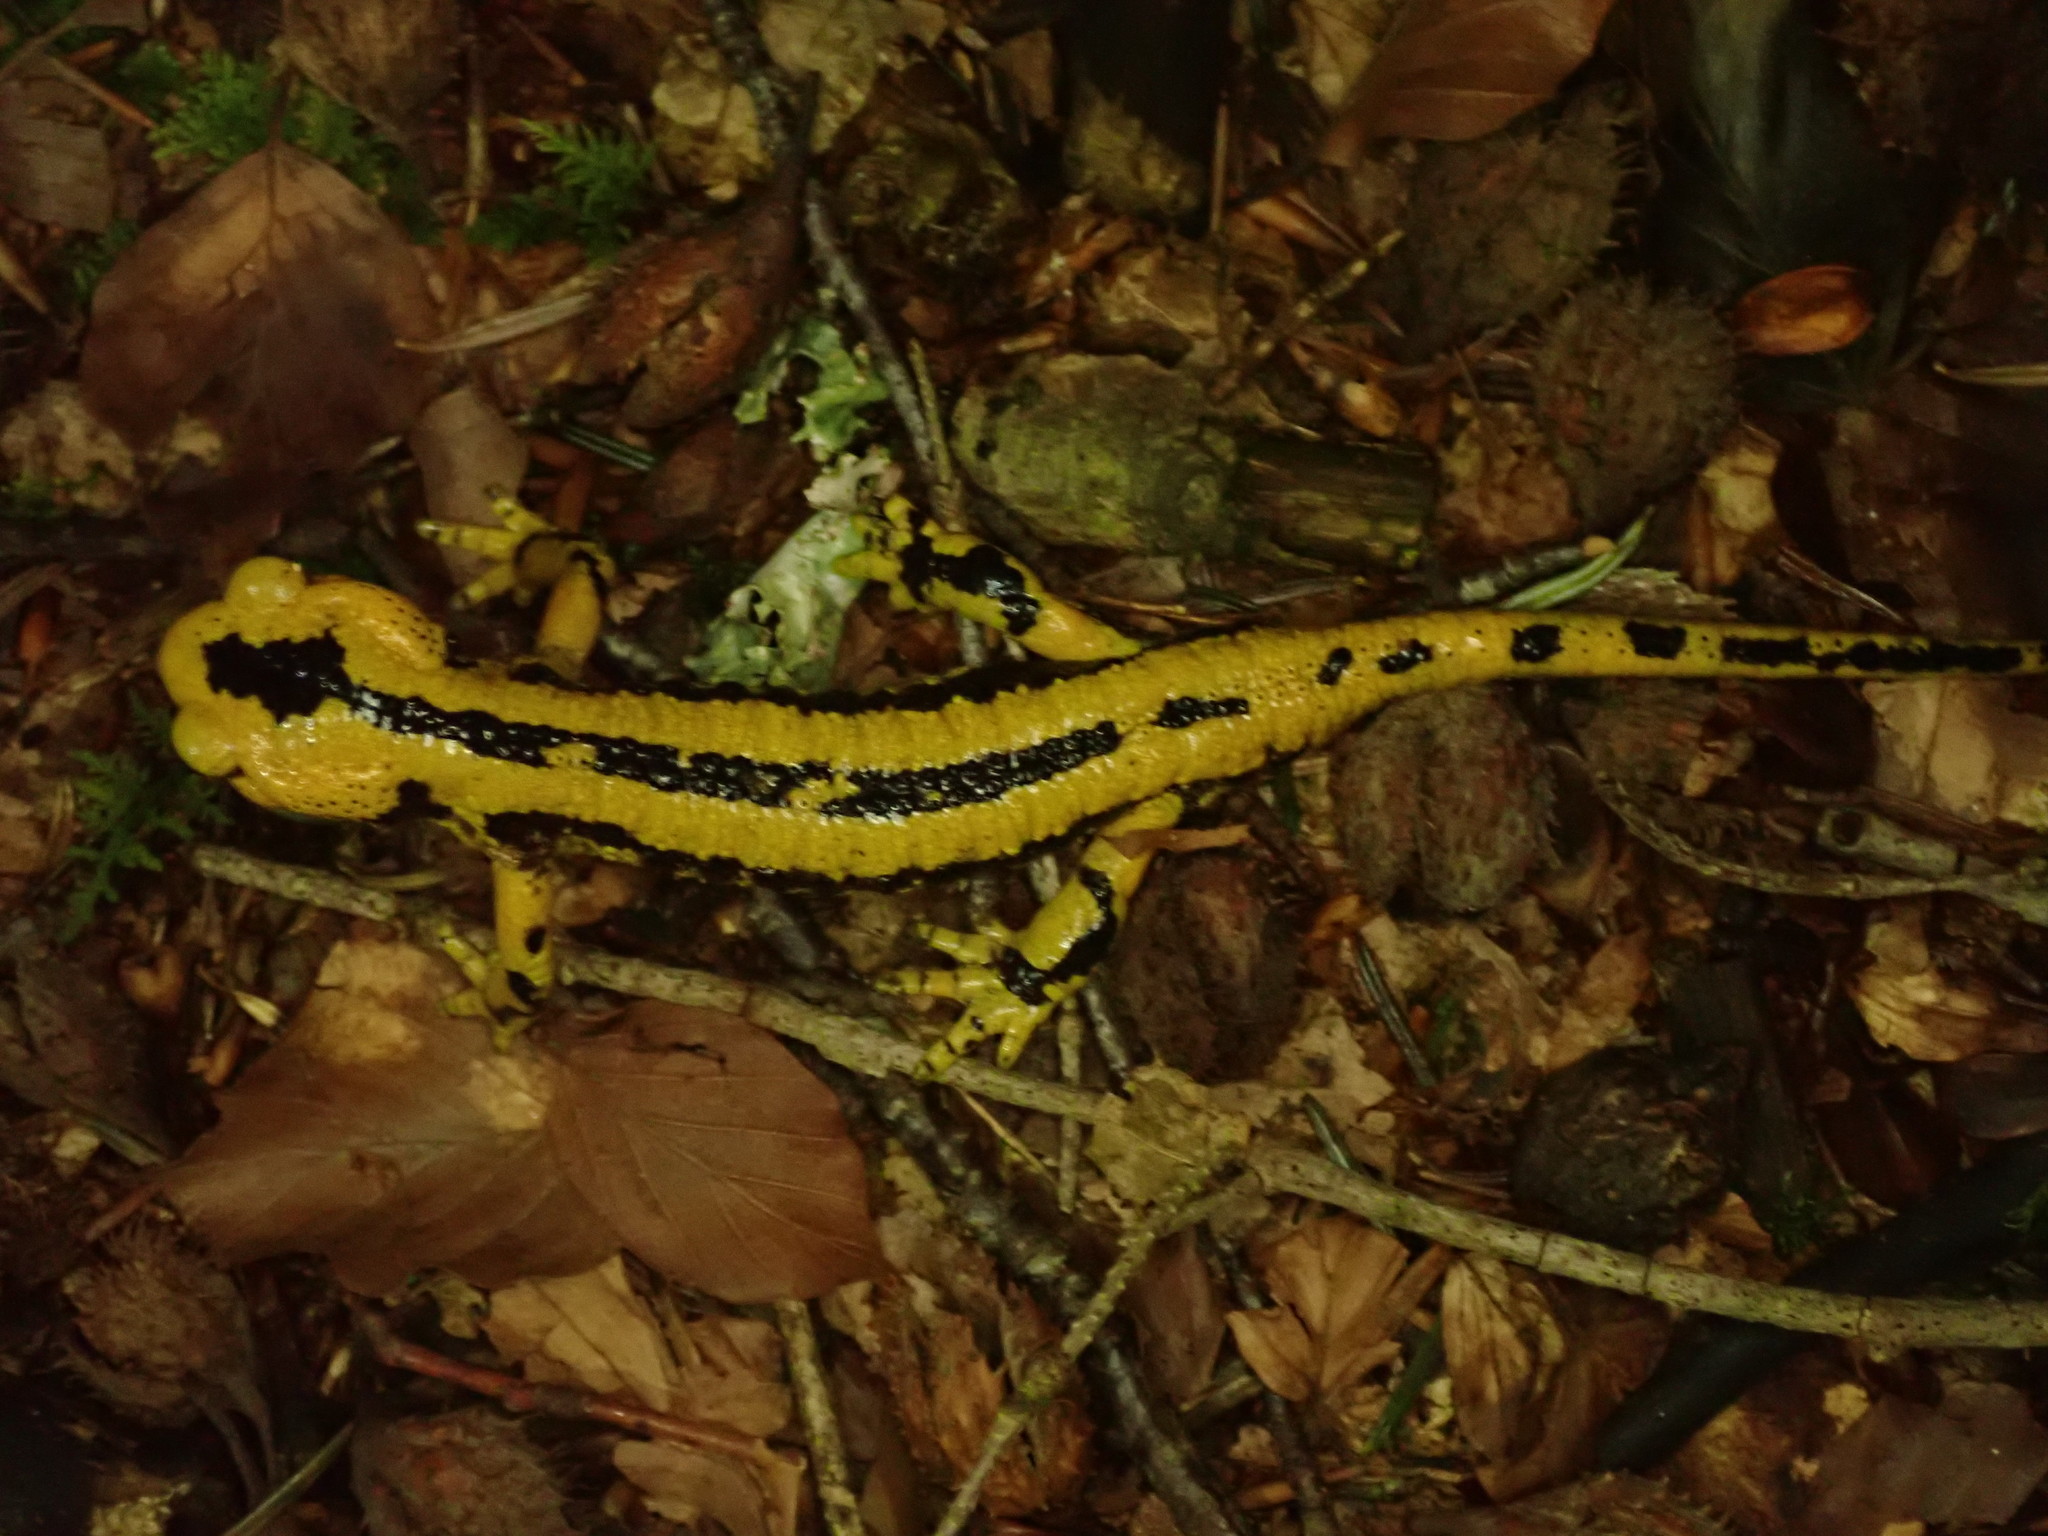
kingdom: Animalia
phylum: Chordata
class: Amphibia
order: Caudata
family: Salamandridae
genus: Salamandra
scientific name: Salamandra salamandra
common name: Fire salamander
